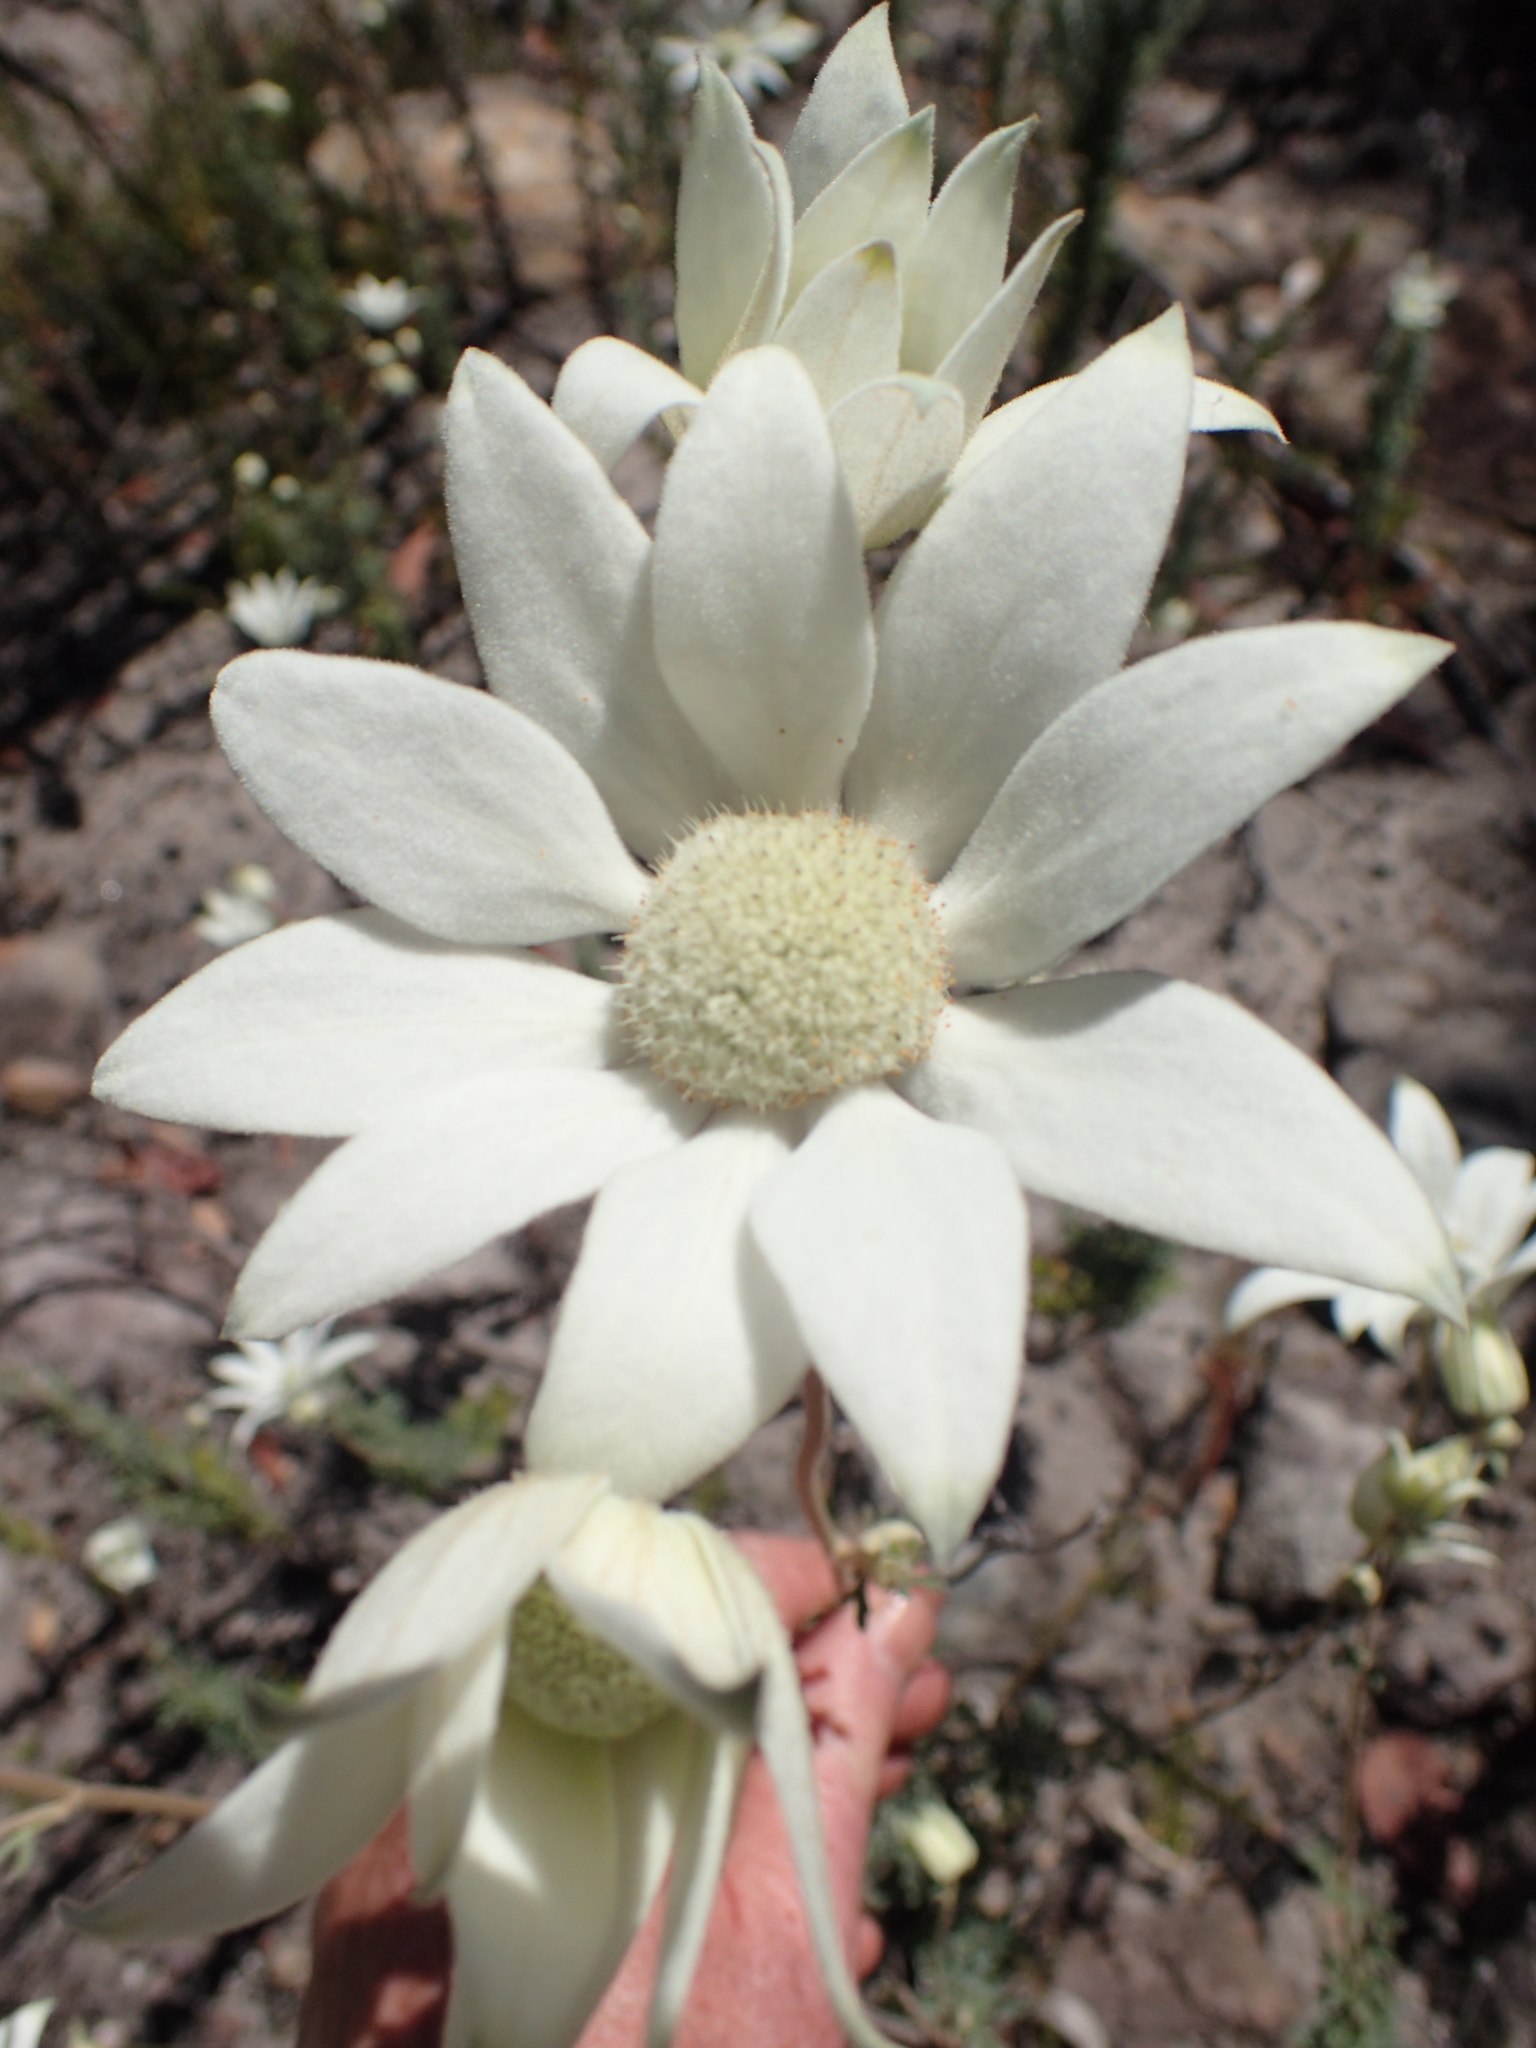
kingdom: Plantae
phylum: Tracheophyta
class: Magnoliopsida
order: Apiales
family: Apiaceae
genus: Actinotus
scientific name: Actinotus helianthi
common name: Flannel-flower
